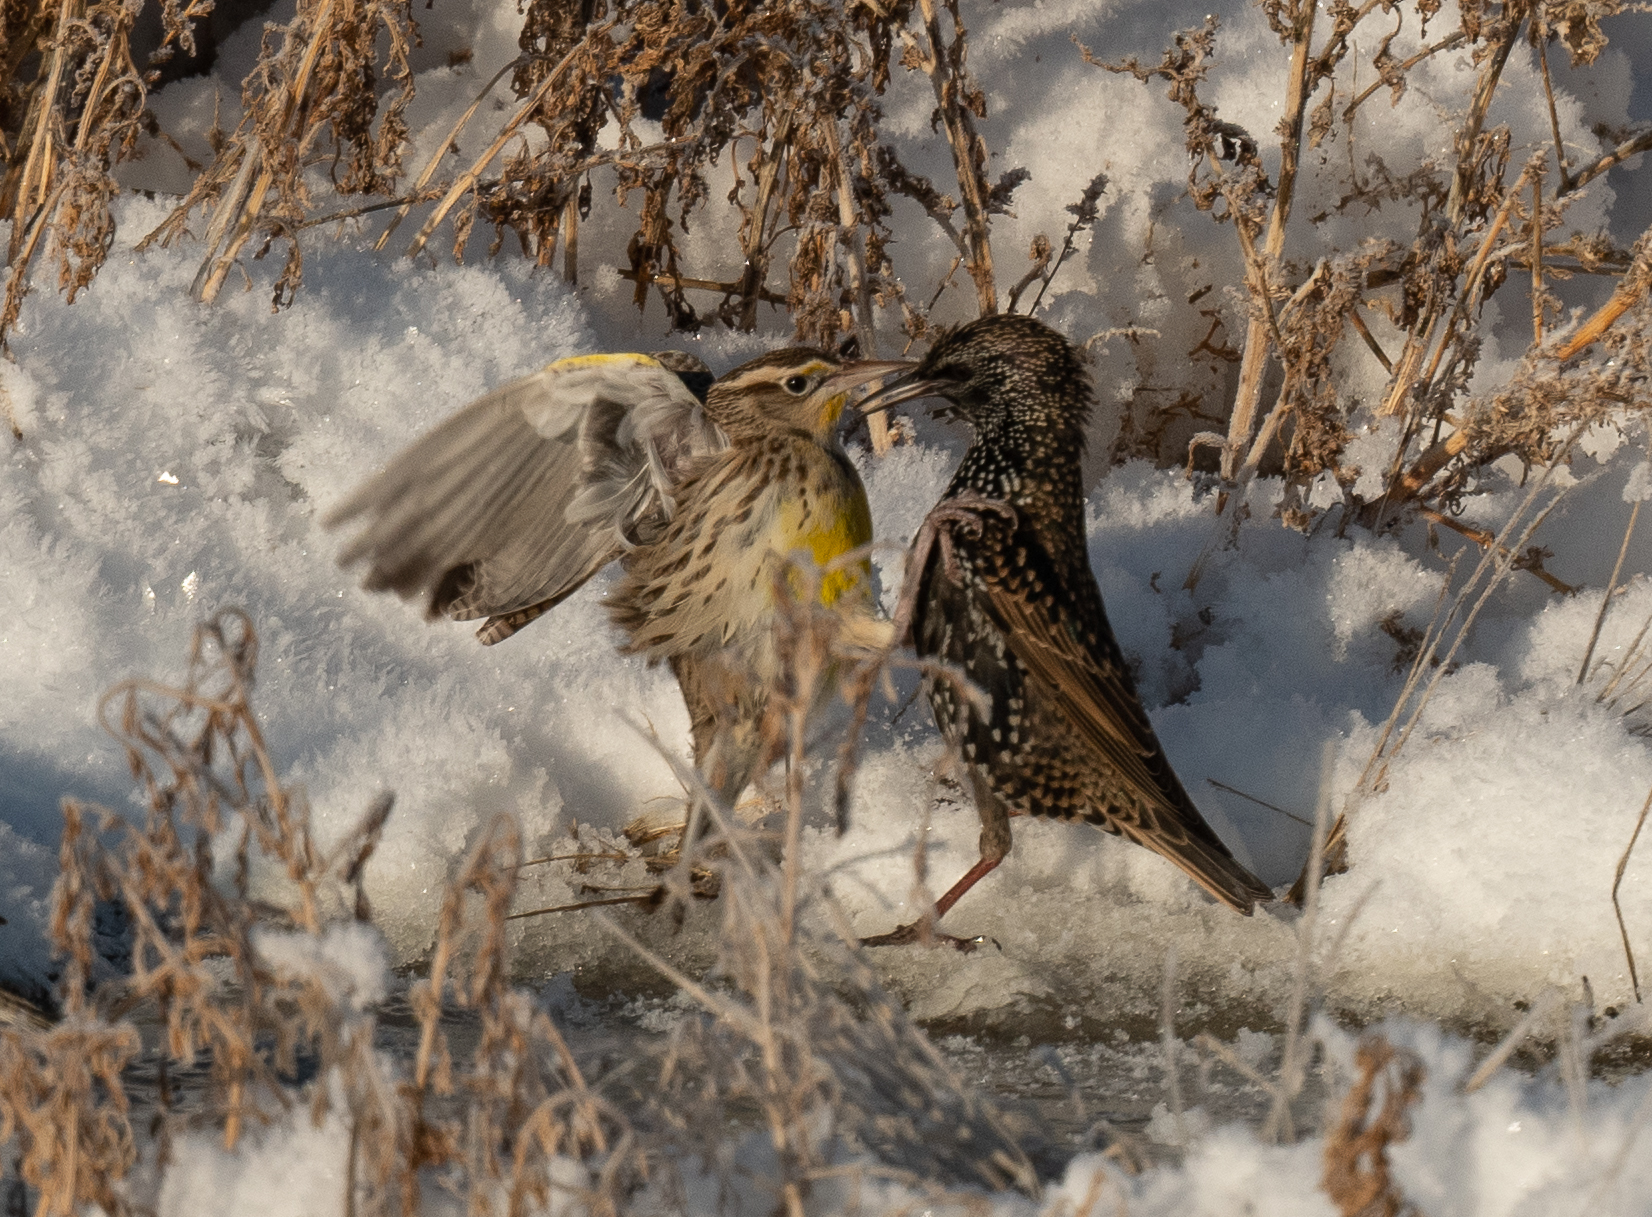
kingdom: Animalia
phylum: Chordata
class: Aves
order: Passeriformes
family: Sturnidae
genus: Sturnus
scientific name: Sturnus vulgaris
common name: Common starling
